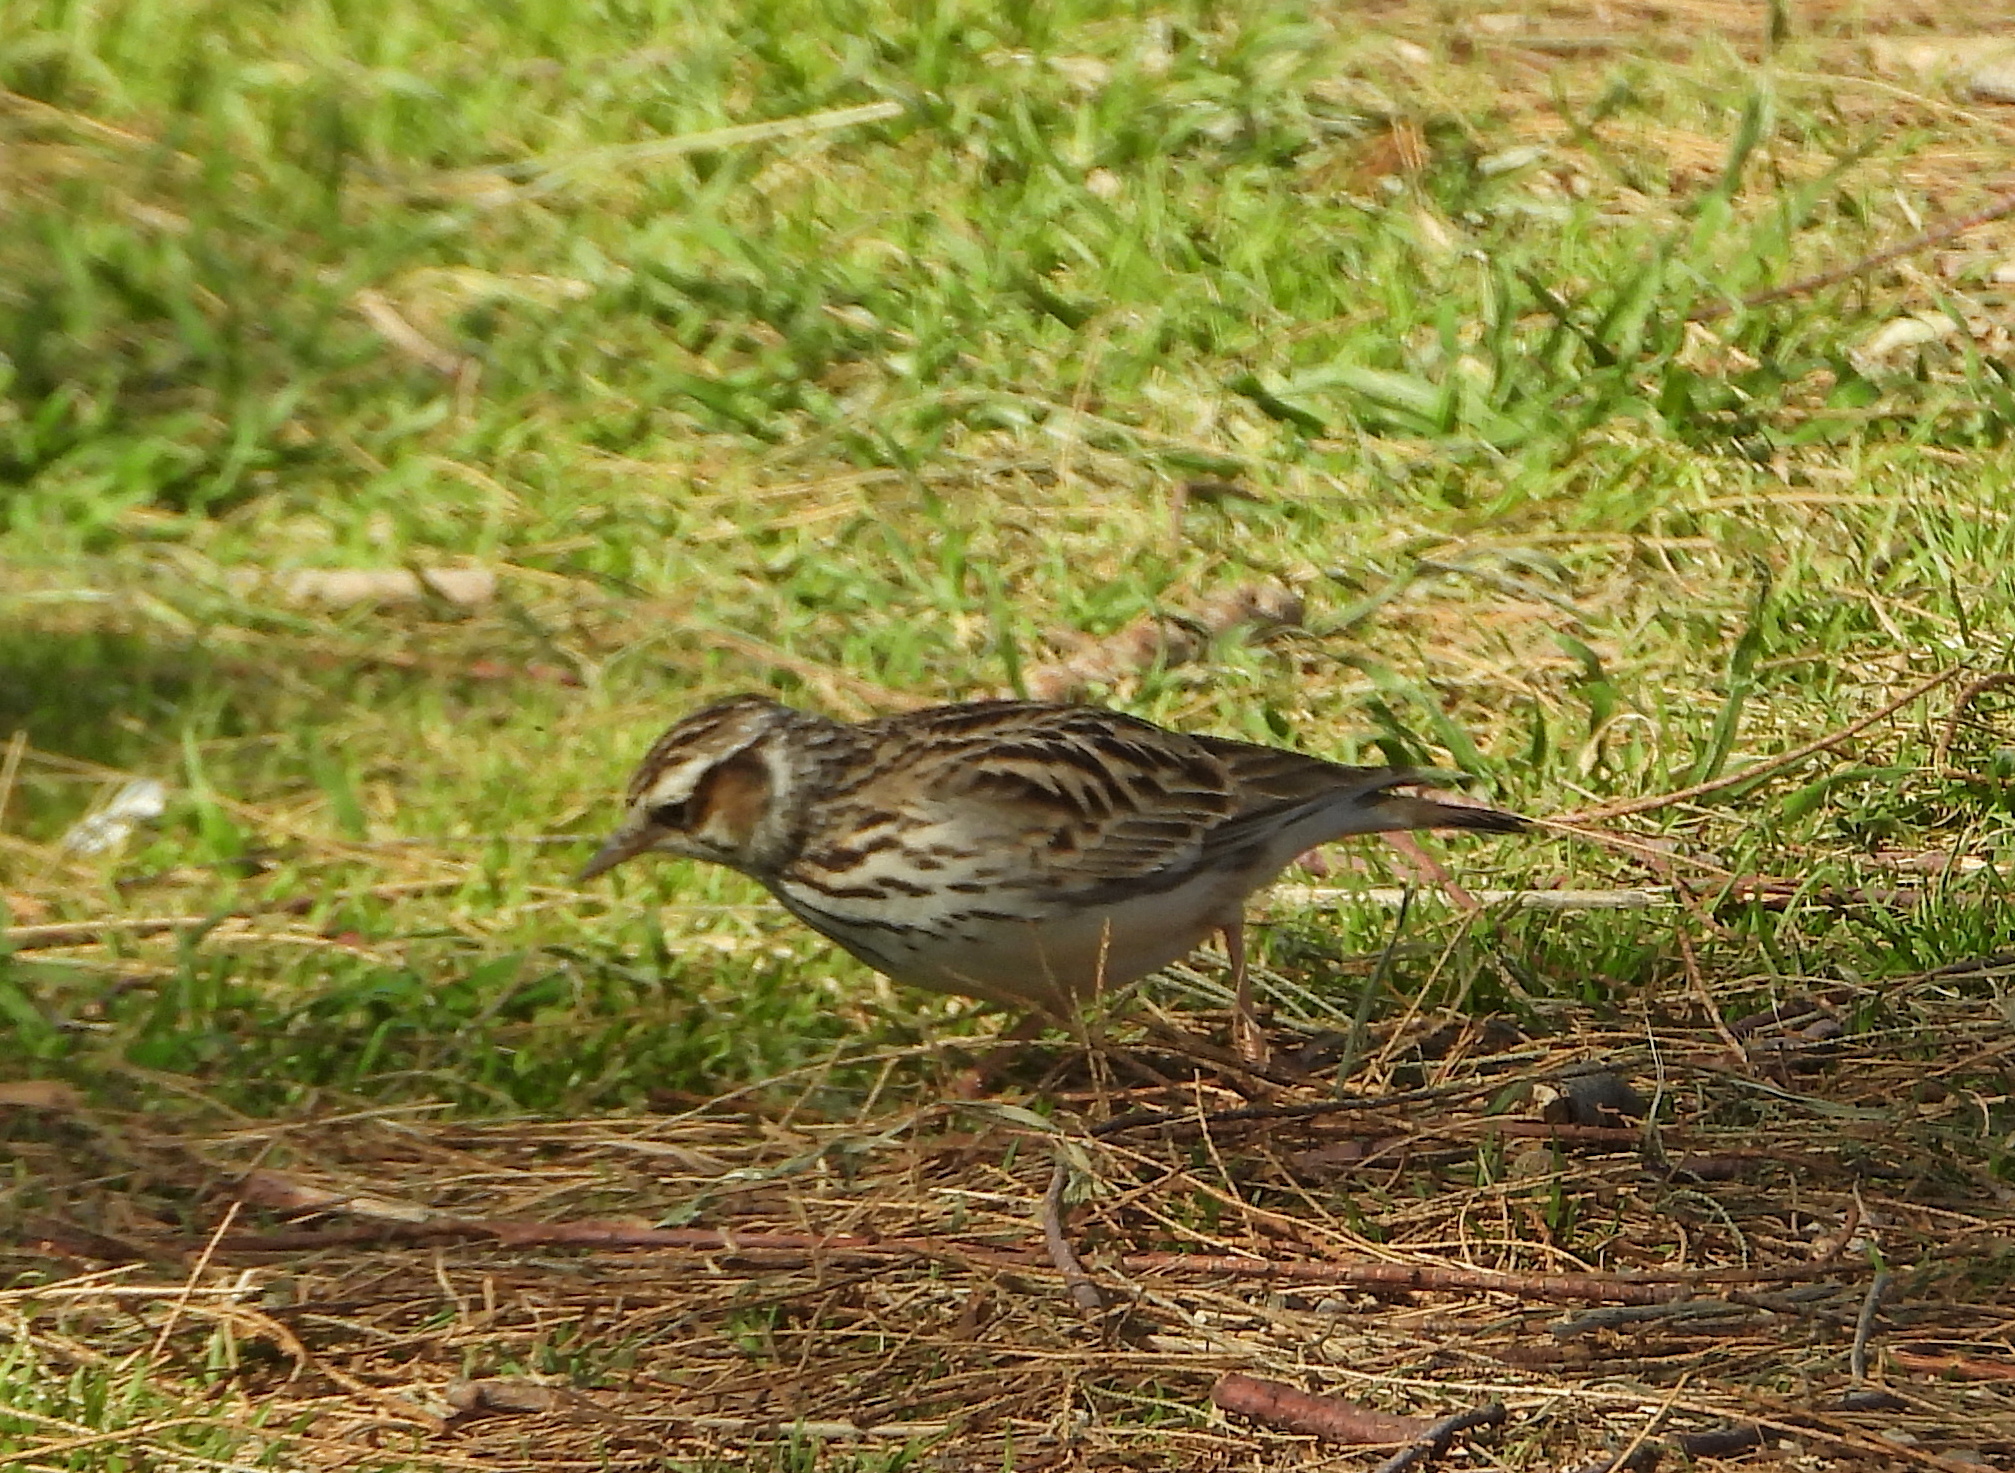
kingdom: Animalia
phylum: Chordata
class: Aves
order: Passeriformes
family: Alaudidae
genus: Lullula
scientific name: Lullula arborea
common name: Woodlark
